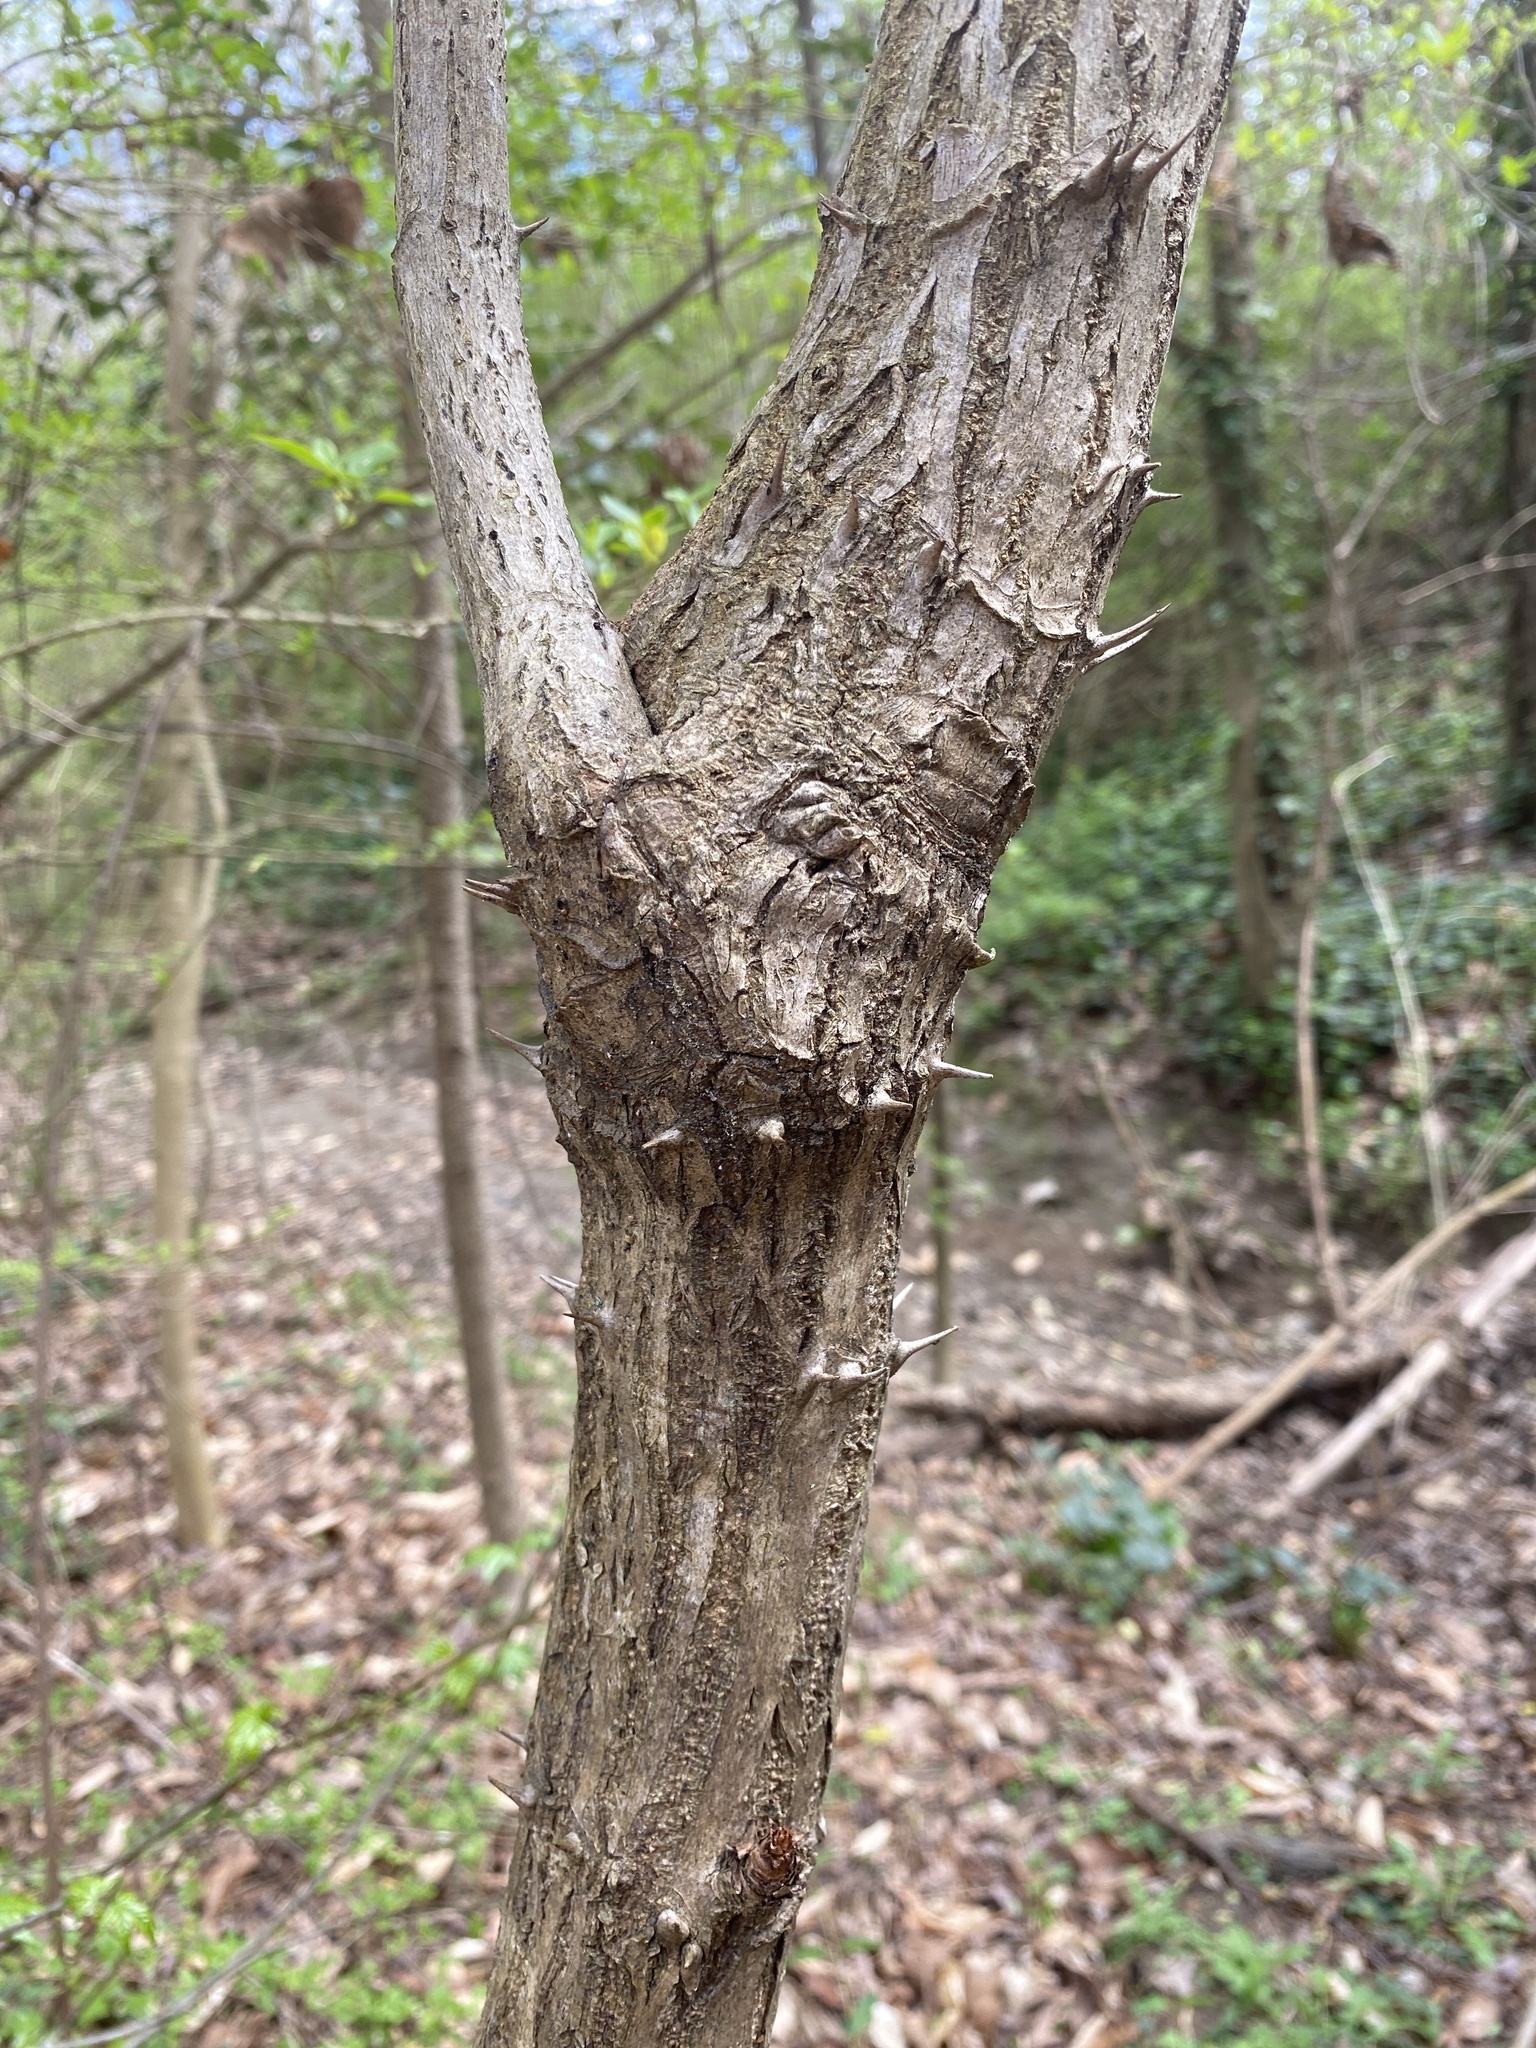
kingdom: Plantae
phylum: Tracheophyta
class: Magnoliopsida
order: Apiales
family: Araliaceae
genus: Aralia
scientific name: Aralia spinosa
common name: Hercules'-club
